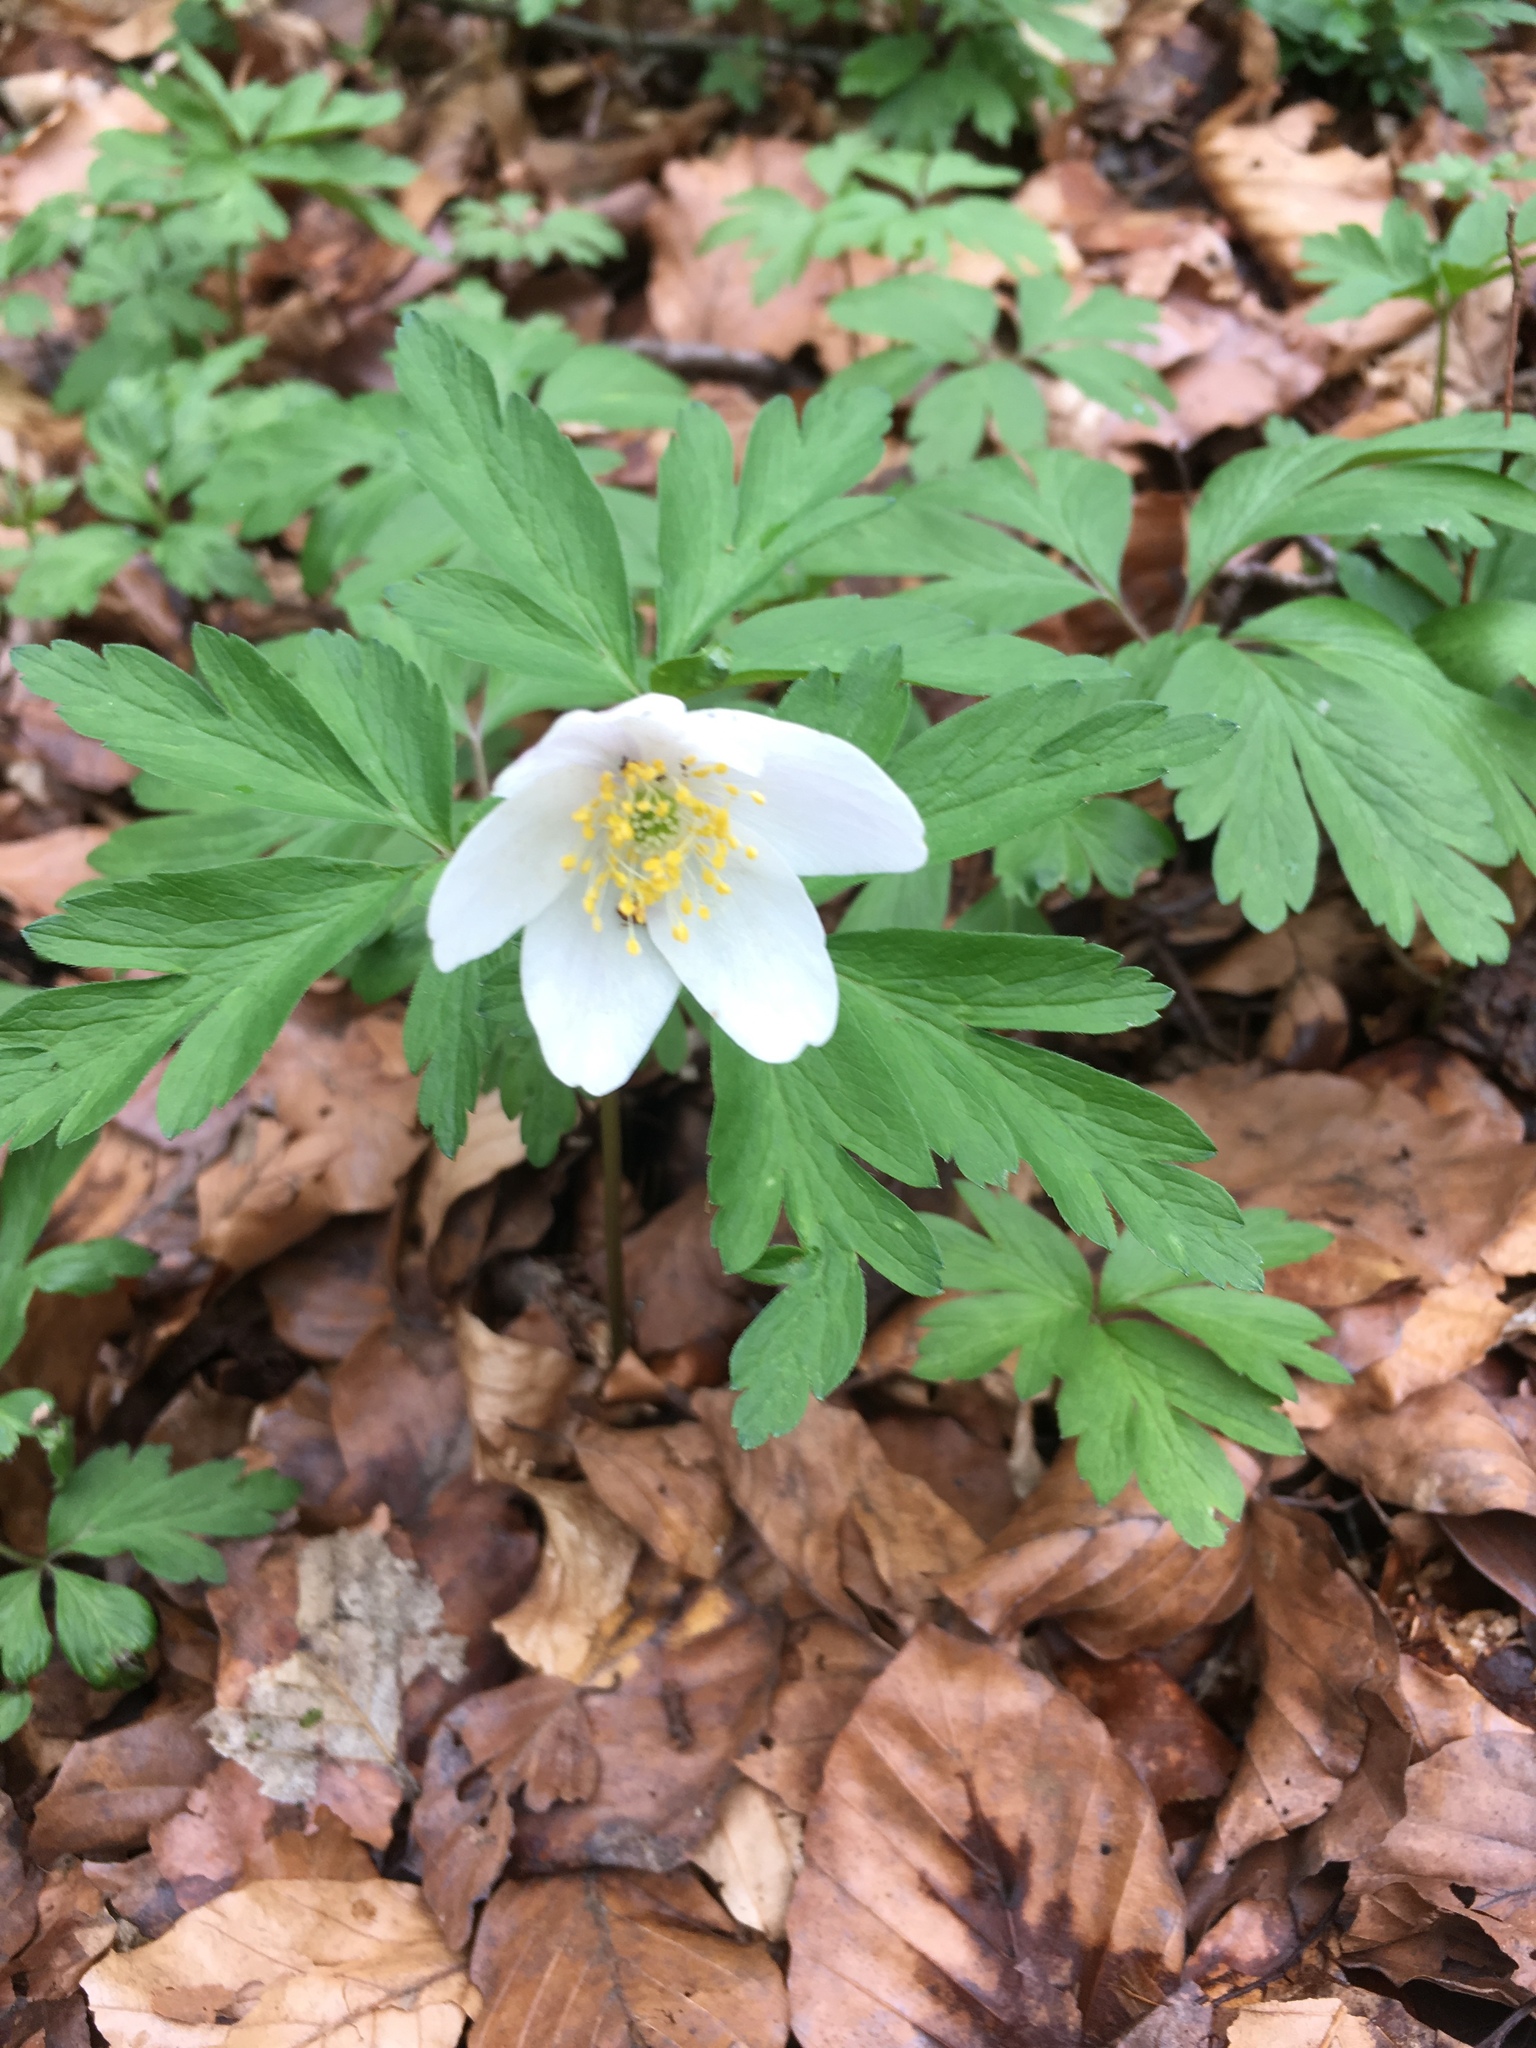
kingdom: Plantae
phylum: Tracheophyta
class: Magnoliopsida
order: Ranunculales
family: Ranunculaceae
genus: Anemone
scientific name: Anemone nemorosa
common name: Wood anemone
